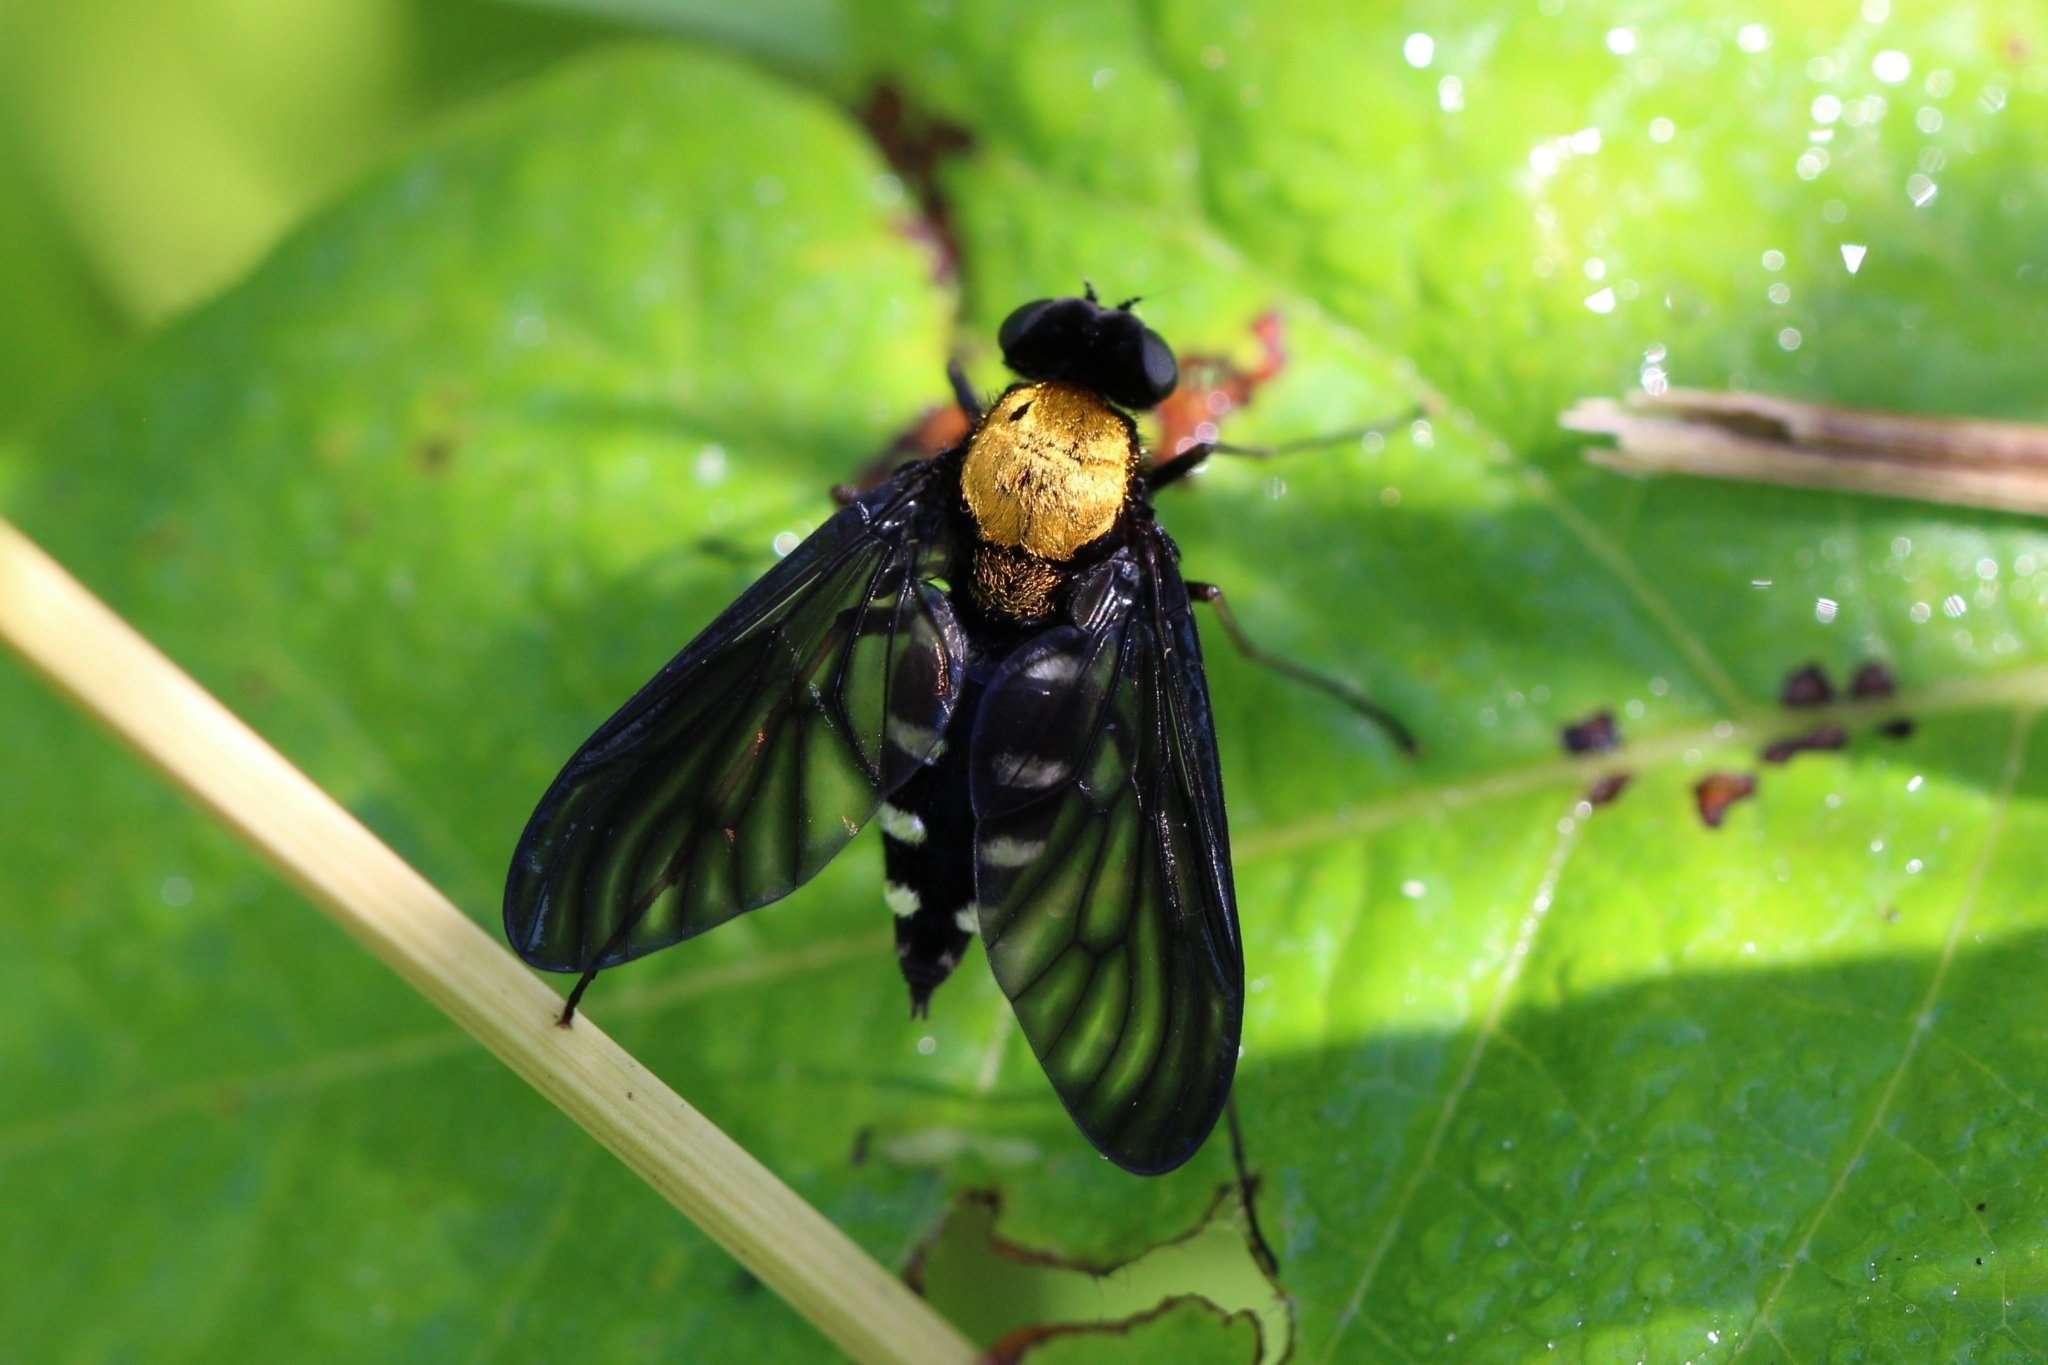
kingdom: Animalia
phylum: Arthropoda
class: Insecta
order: Diptera
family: Rhagionidae
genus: Chrysopilus
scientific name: Chrysopilus thoracicus
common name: Golden-backed snipe fly
